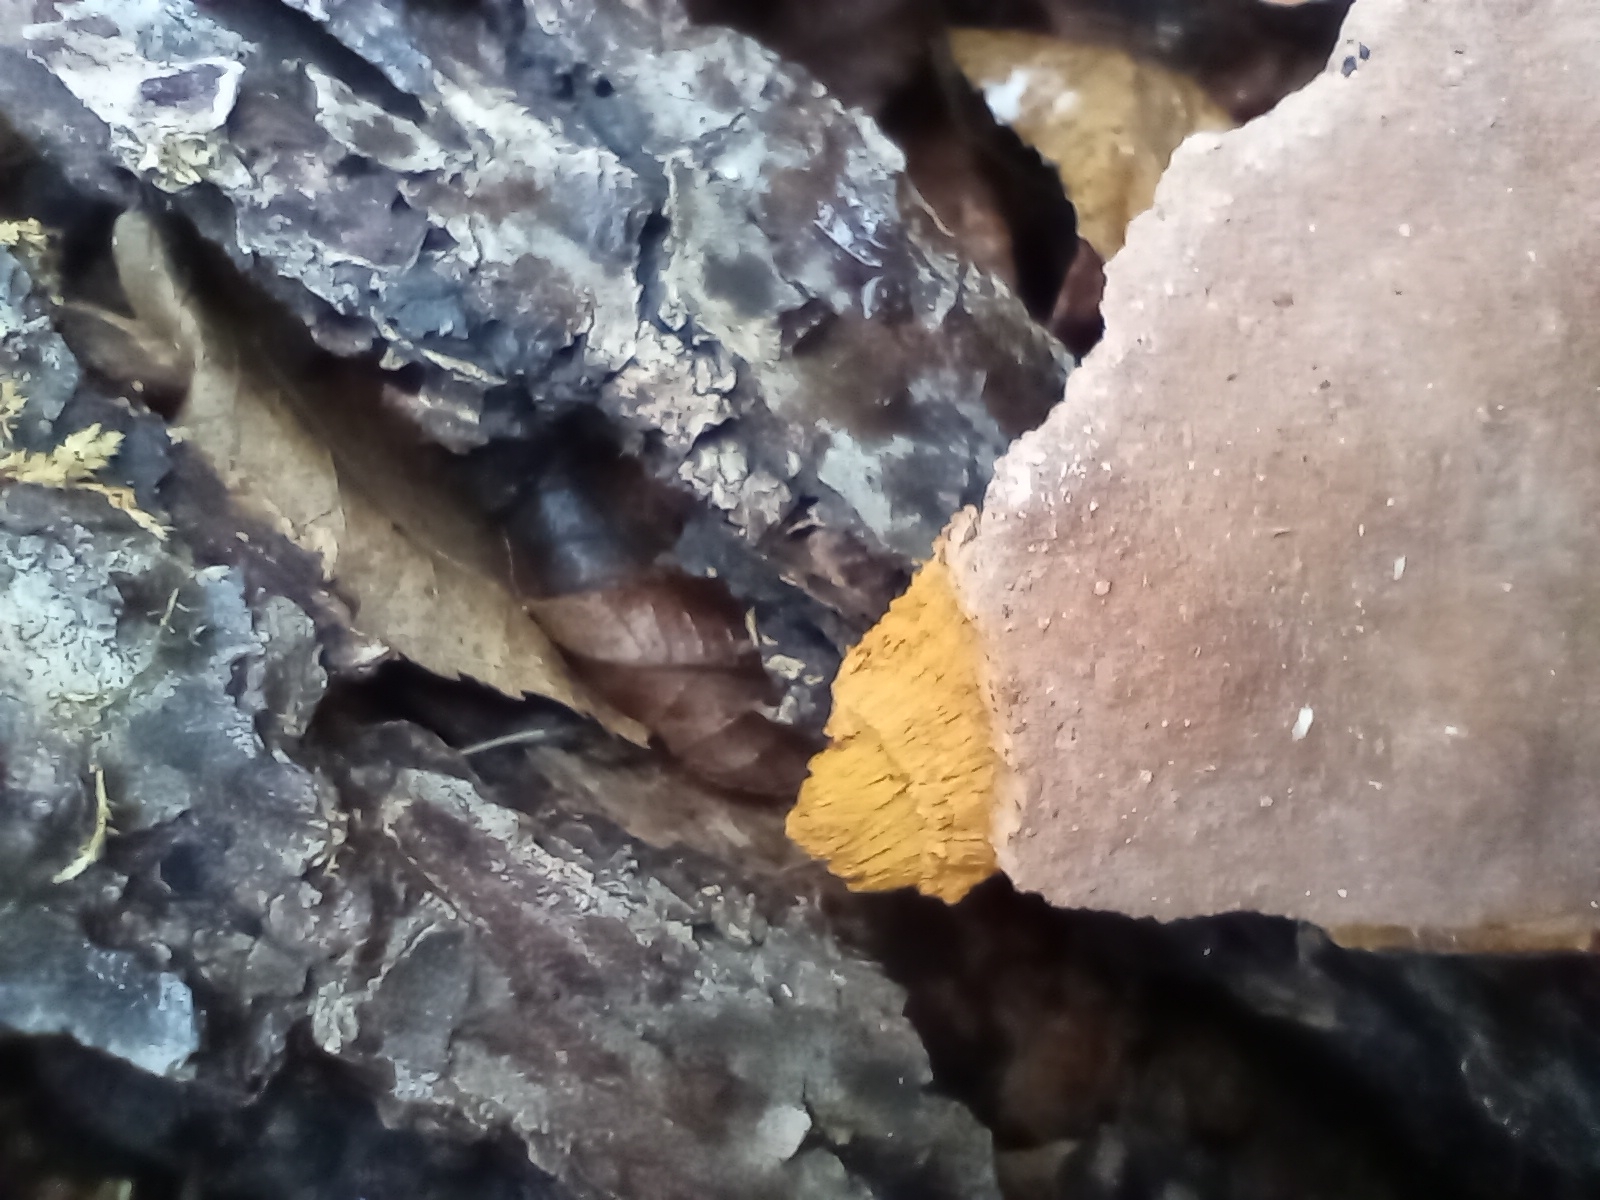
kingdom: Fungi
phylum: Basidiomycota
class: Agaricomycetes
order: Hymenochaetales
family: Hymenochaetaceae
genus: Phellinus
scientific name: Phellinus gilvus
